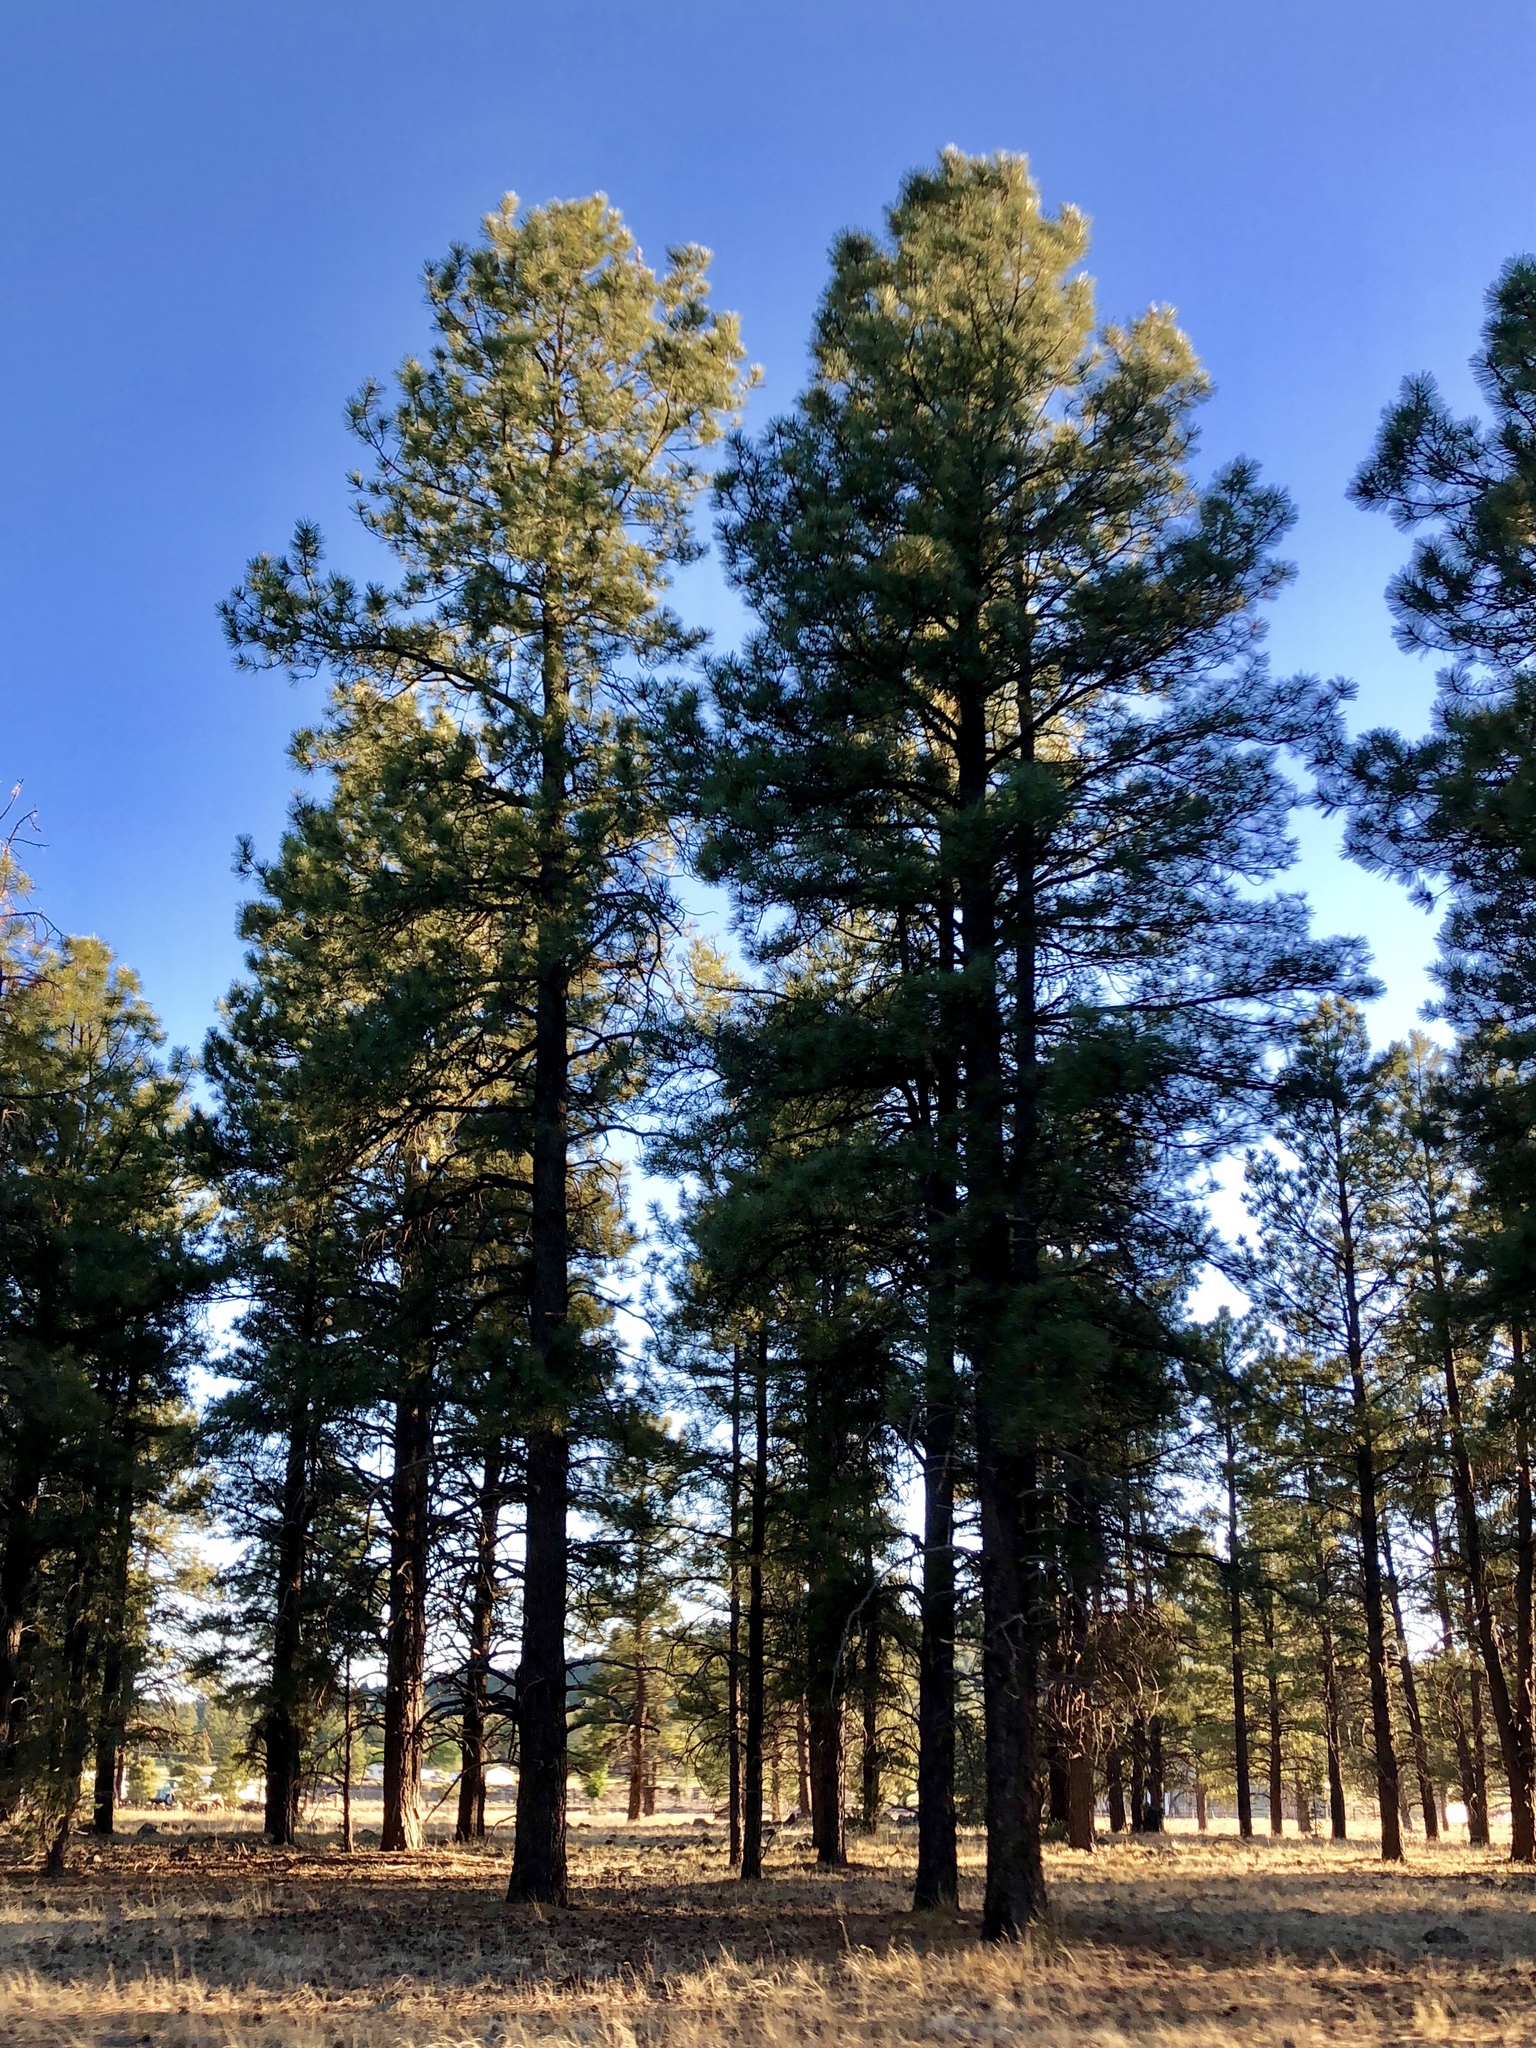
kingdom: Plantae
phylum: Tracheophyta
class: Pinopsida
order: Pinales
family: Pinaceae
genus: Pinus
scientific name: Pinus ponderosa
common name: Western yellow-pine
